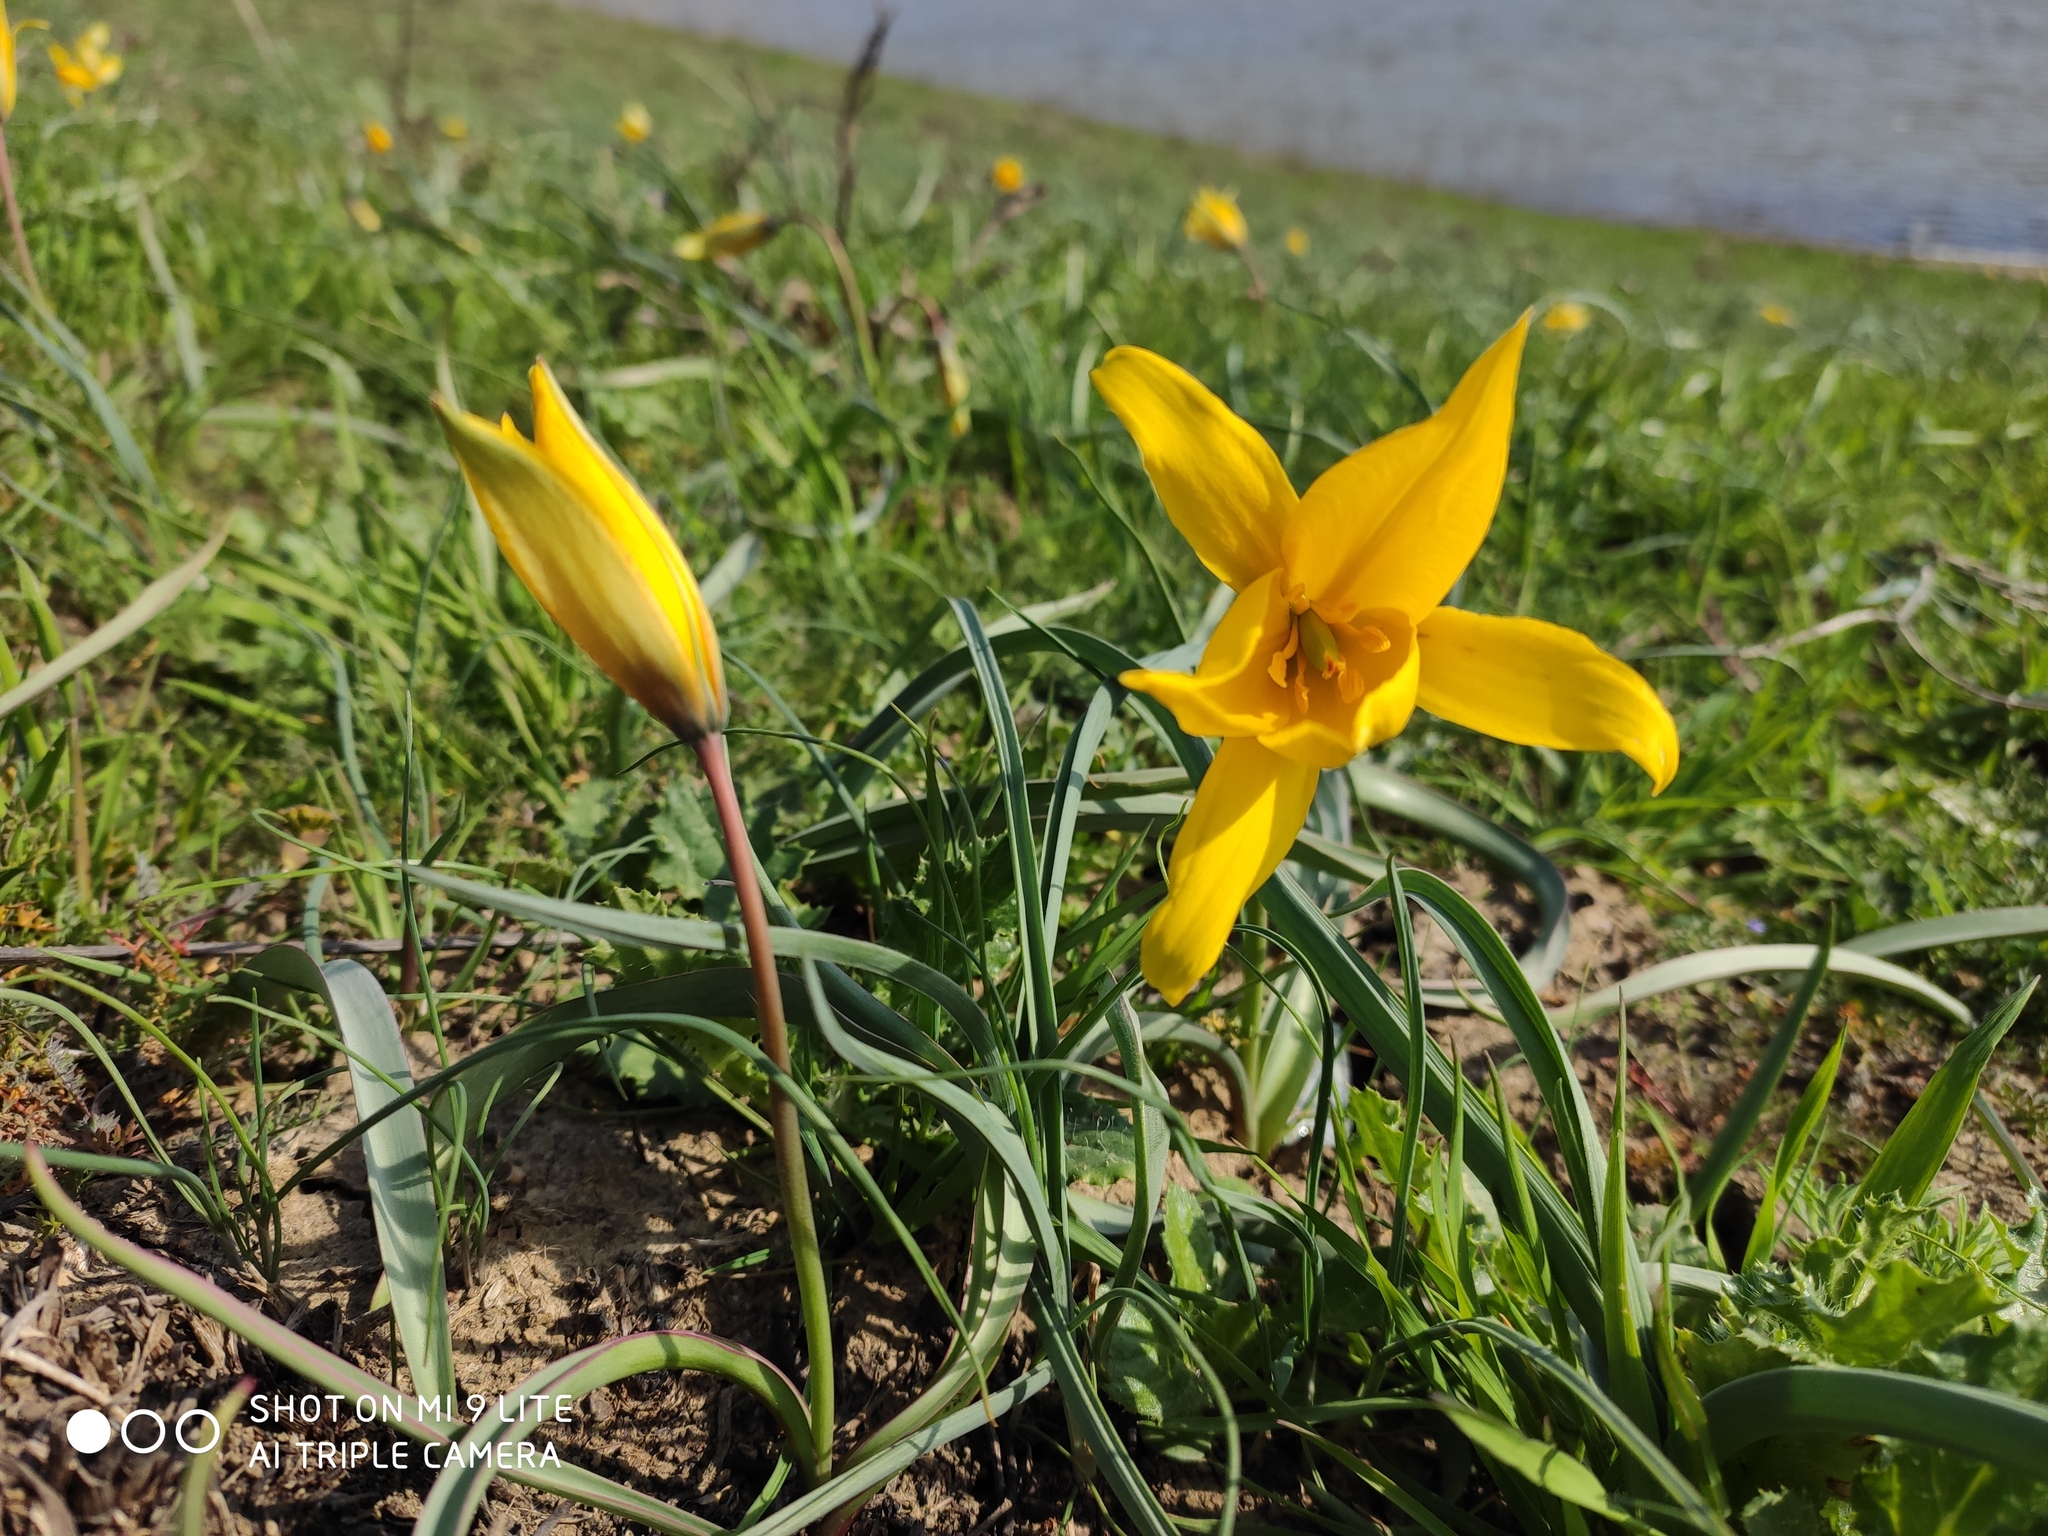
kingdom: Plantae
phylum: Tracheophyta
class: Liliopsida
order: Liliales
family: Liliaceae
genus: Tulipa
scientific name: Tulipa sylvestris
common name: Wild tulip
